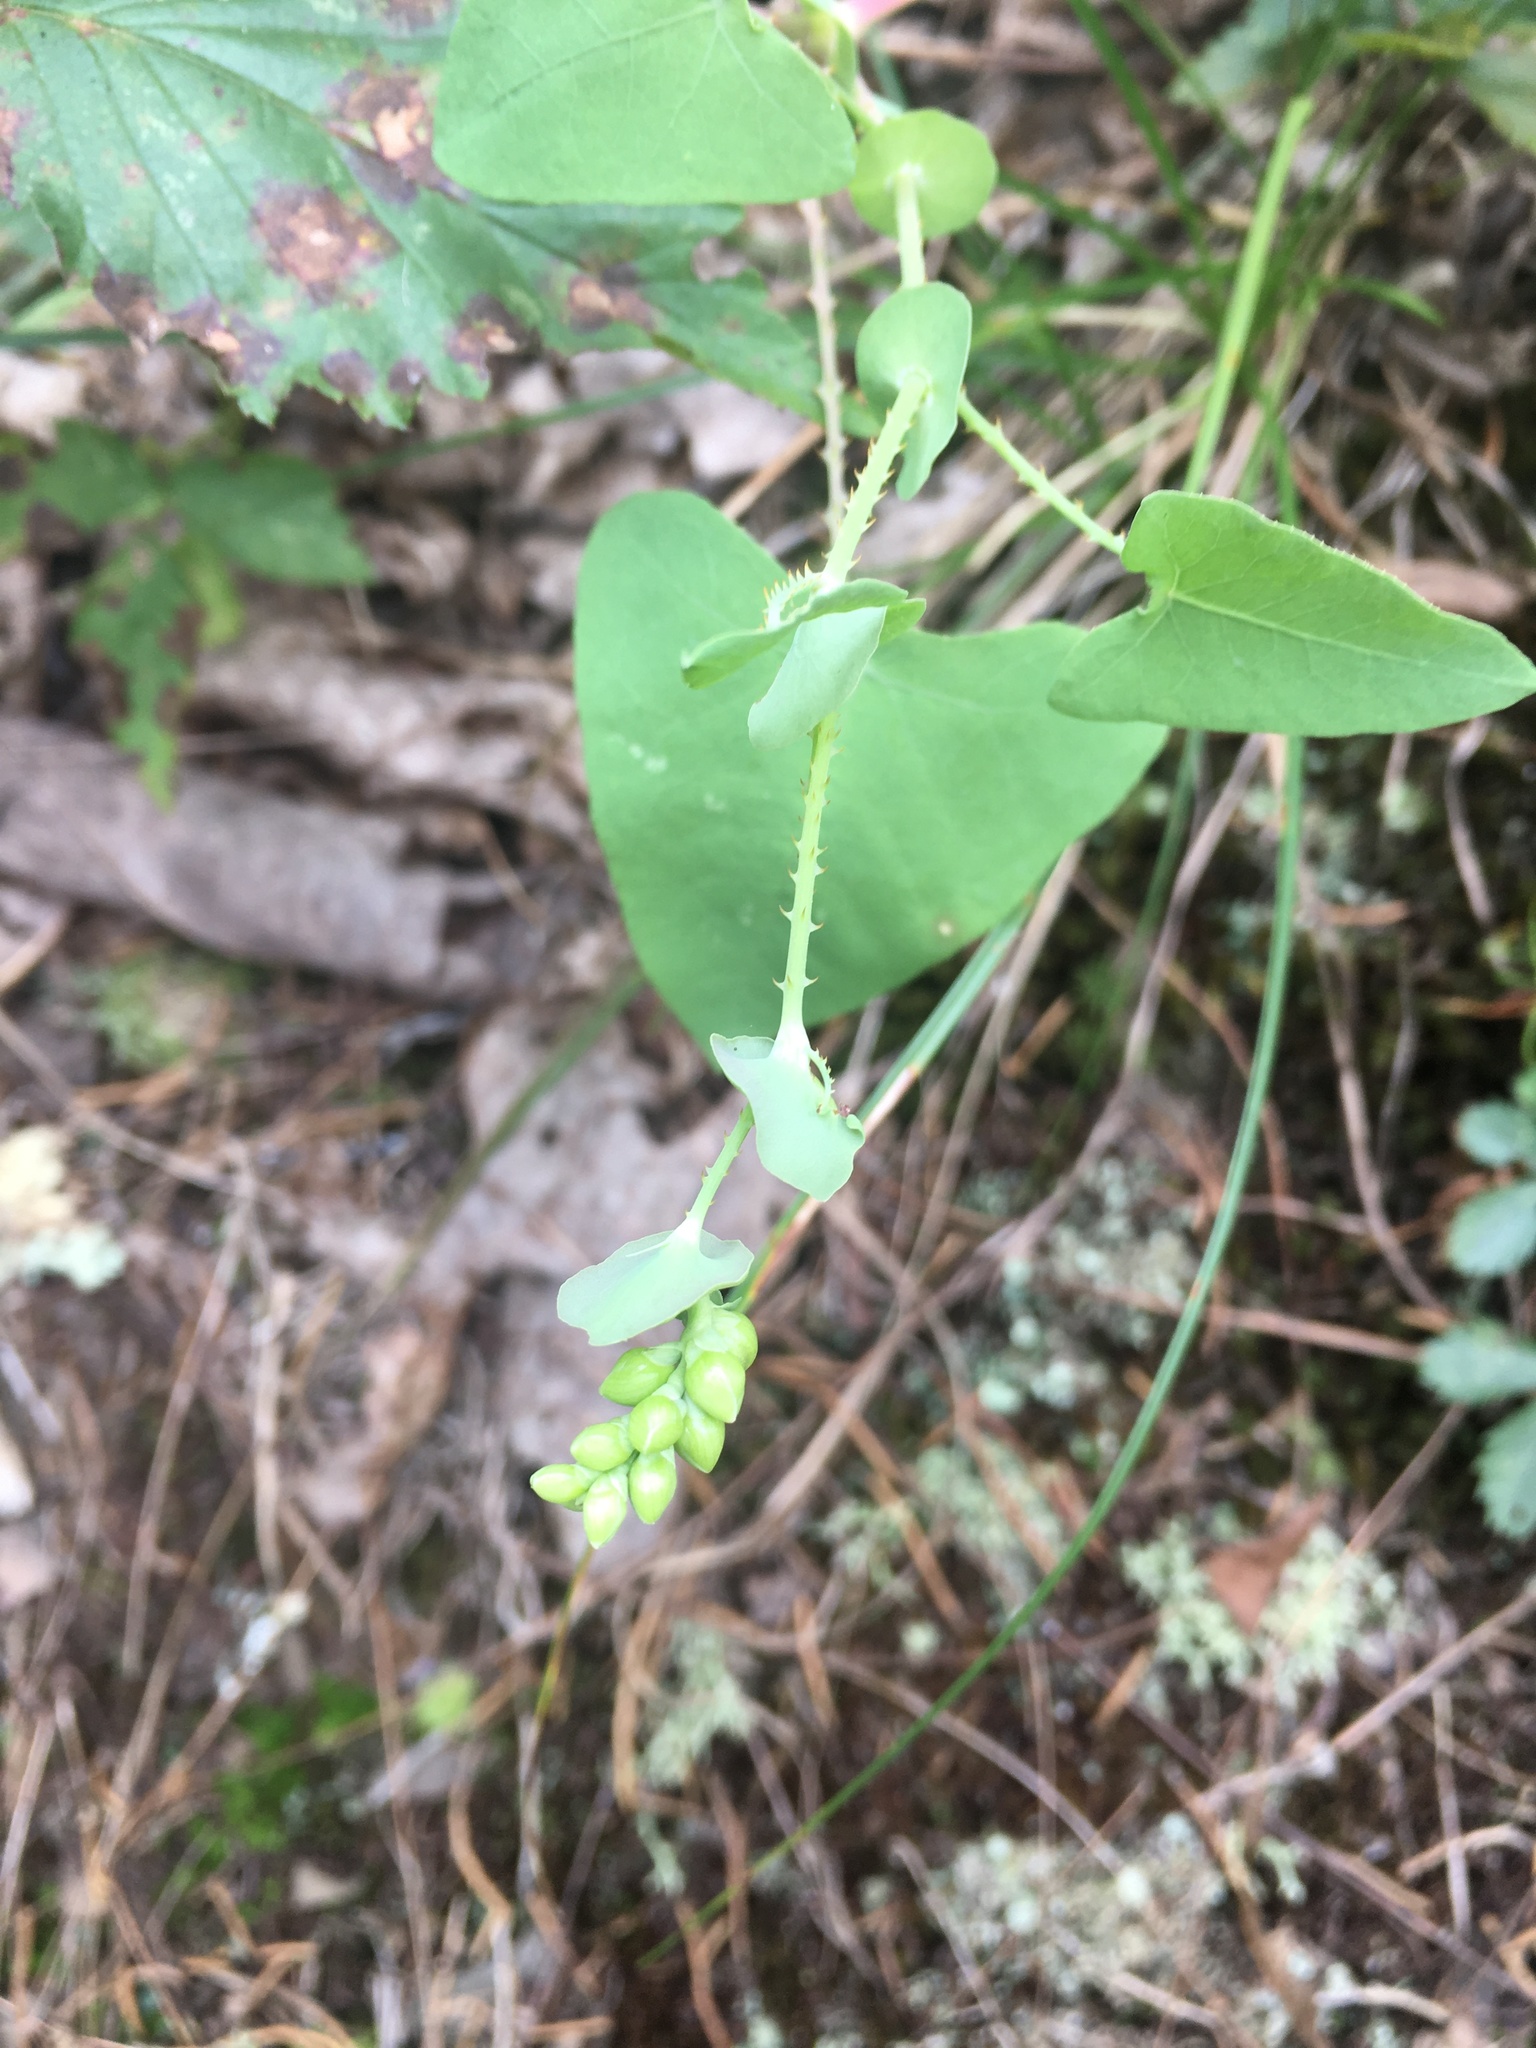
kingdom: Plantae
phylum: Tracheophyta
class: Magnoliopsida
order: Caryophyllales
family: Polygonaceae
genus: Persicaria
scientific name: Persicaria perfoliata
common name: Asiatic tearthumb
